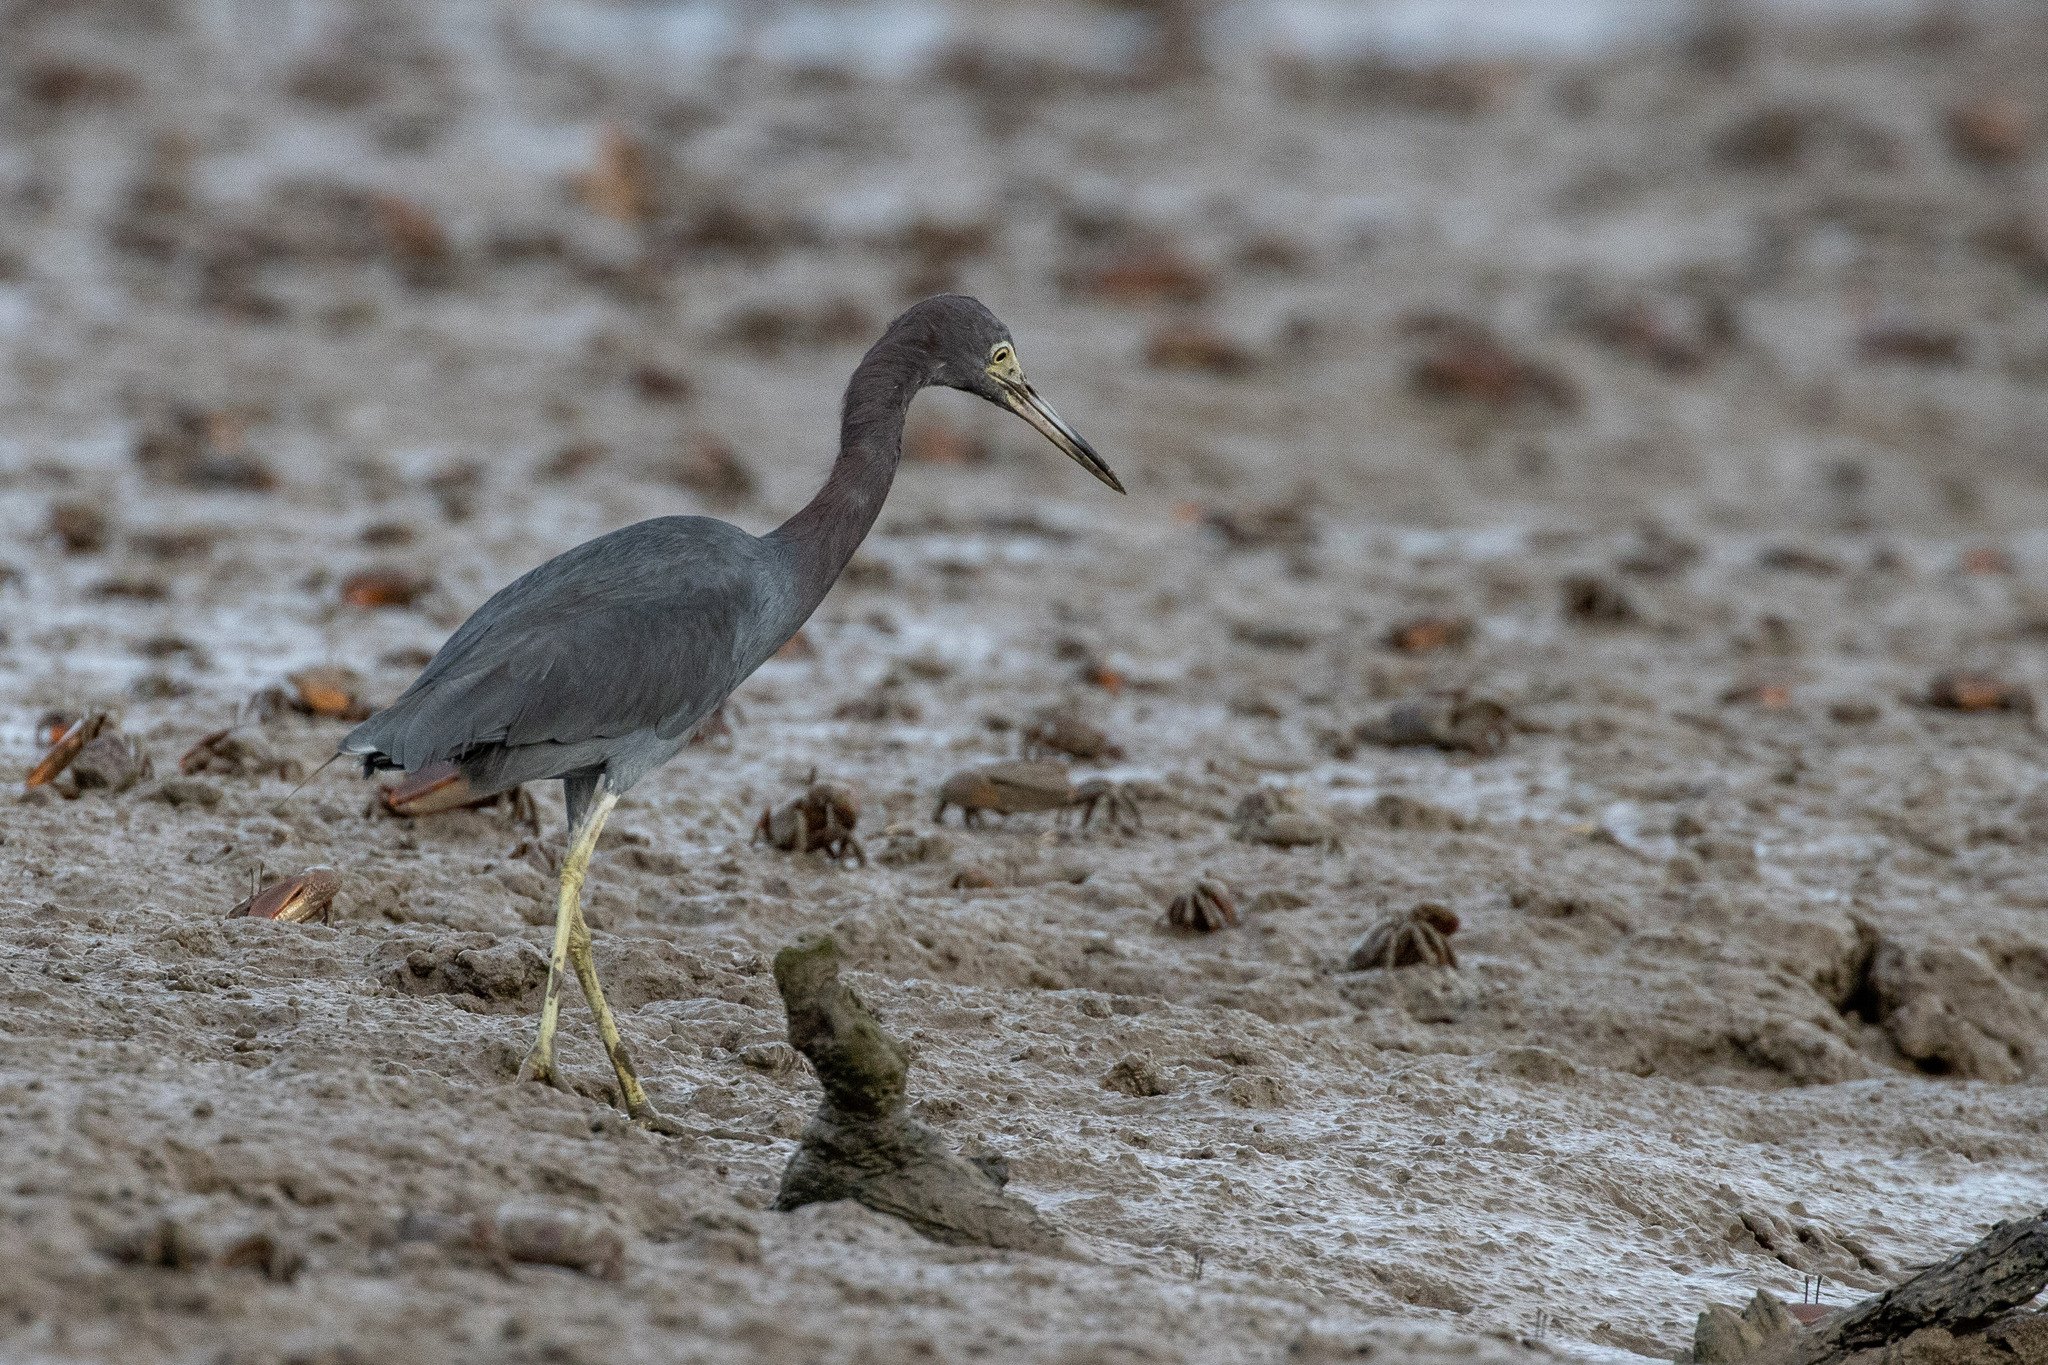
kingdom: Animalia
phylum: Chordata
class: Aves
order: Pelecaniformes
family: Ardeidae
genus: Egretta
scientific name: Egretta caerulea
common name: Little blue heron
